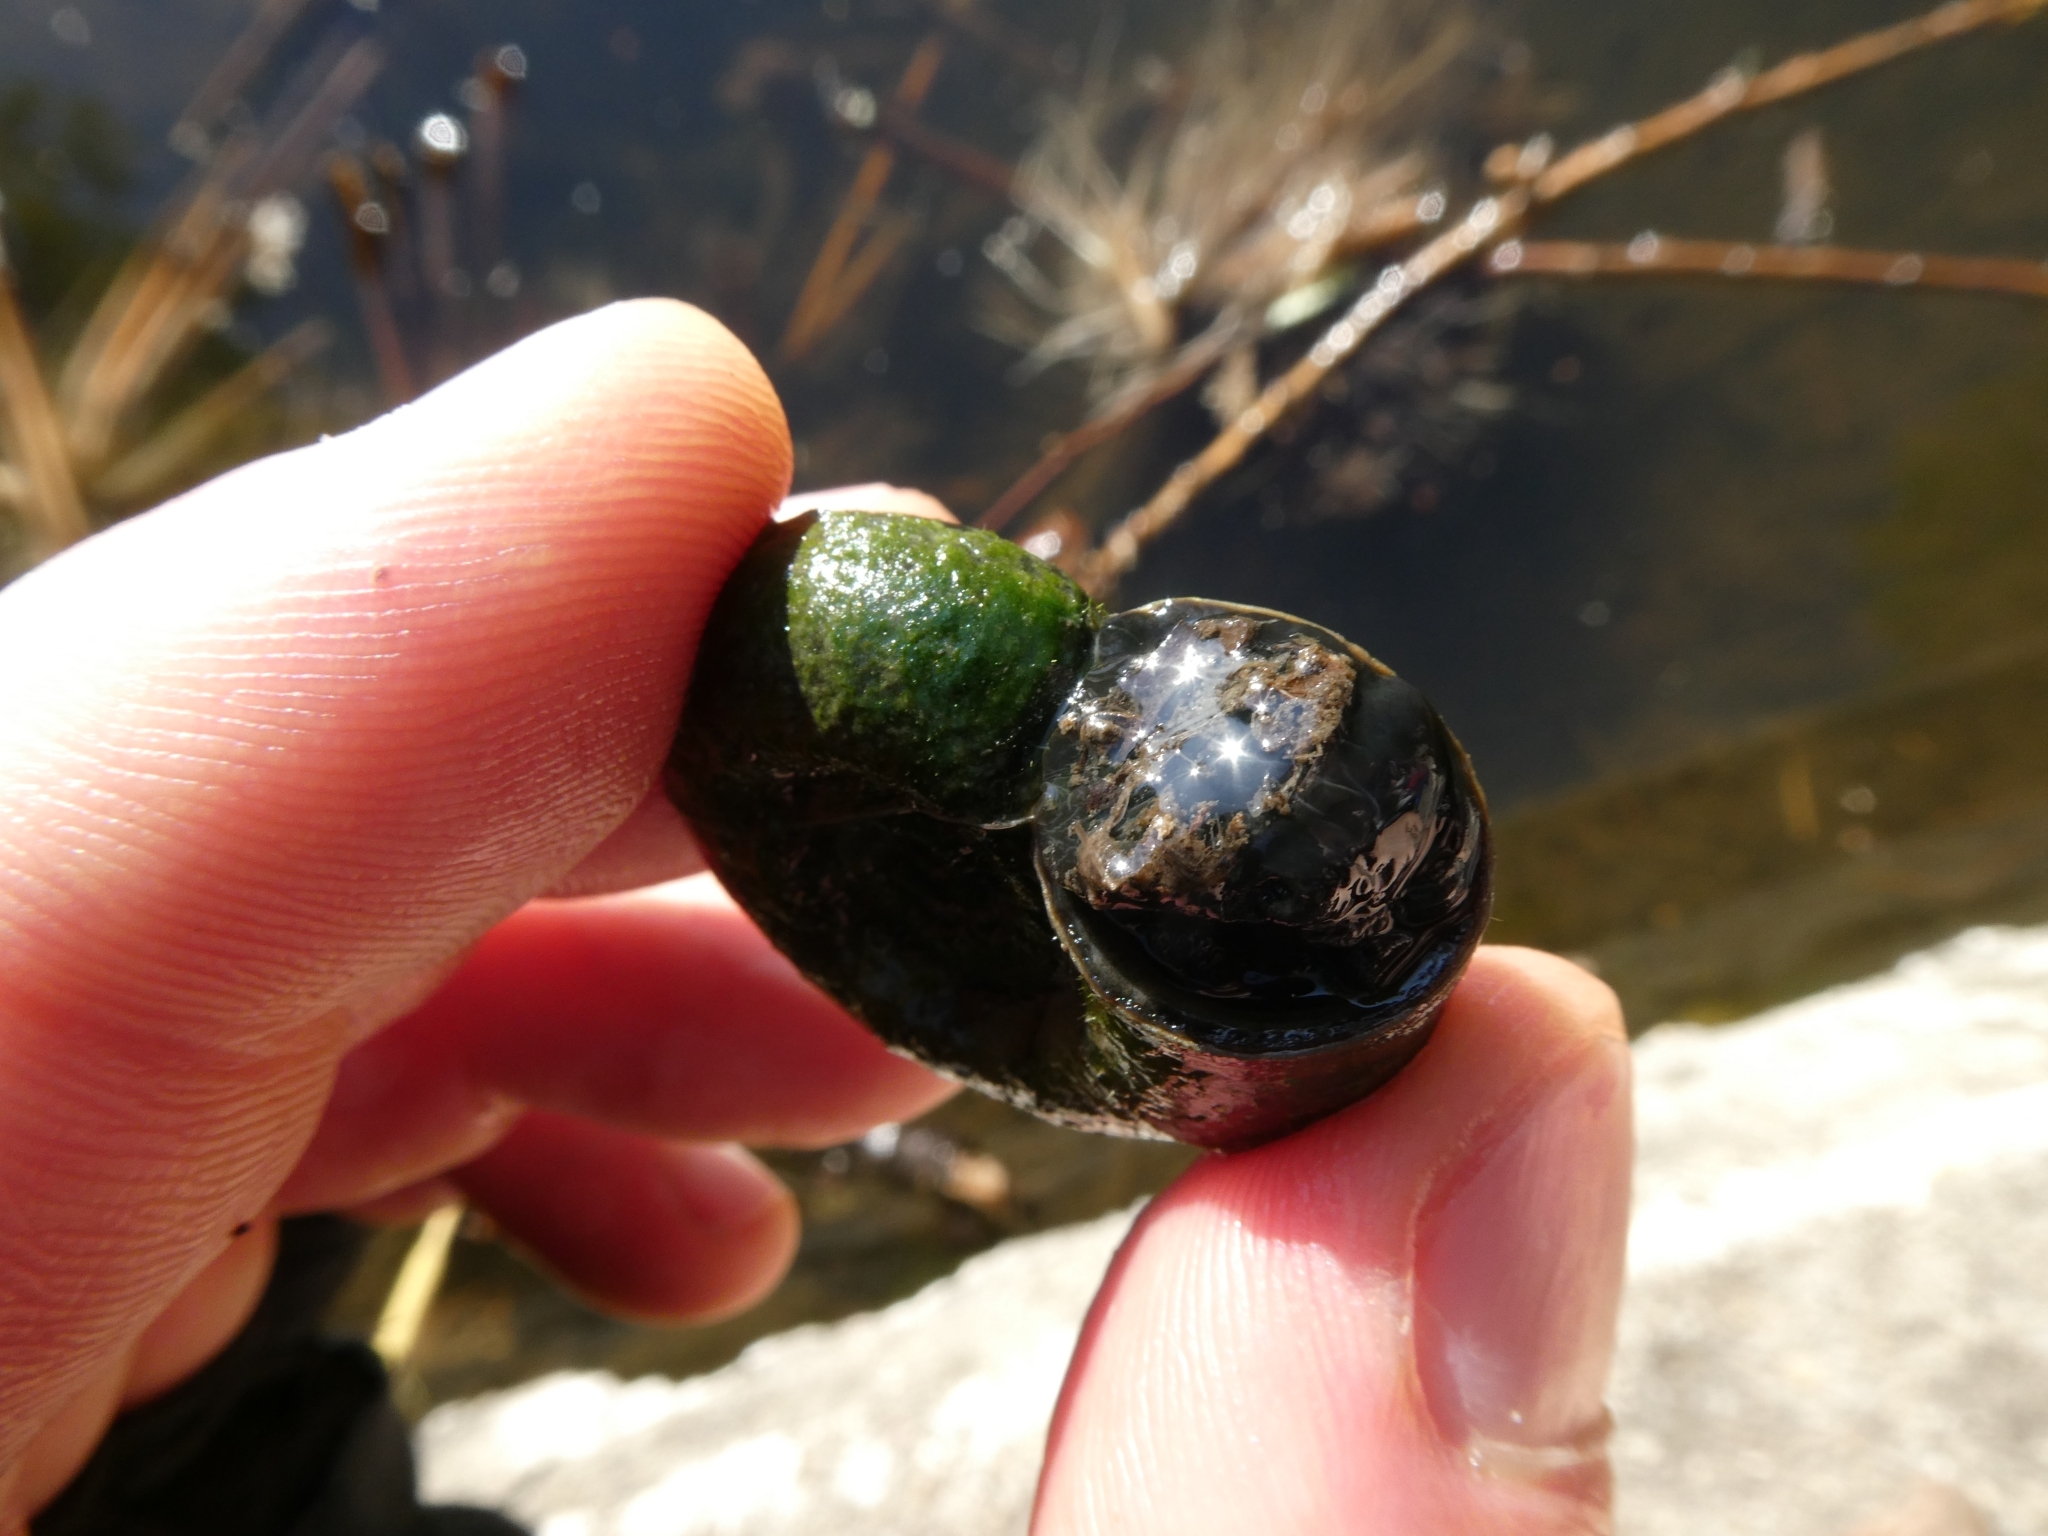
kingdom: Animalia
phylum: Mollusca
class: Gastropoda
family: Planorbidae
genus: Planorbarius
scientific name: Planorbarius corneus
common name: Great ramshorn
